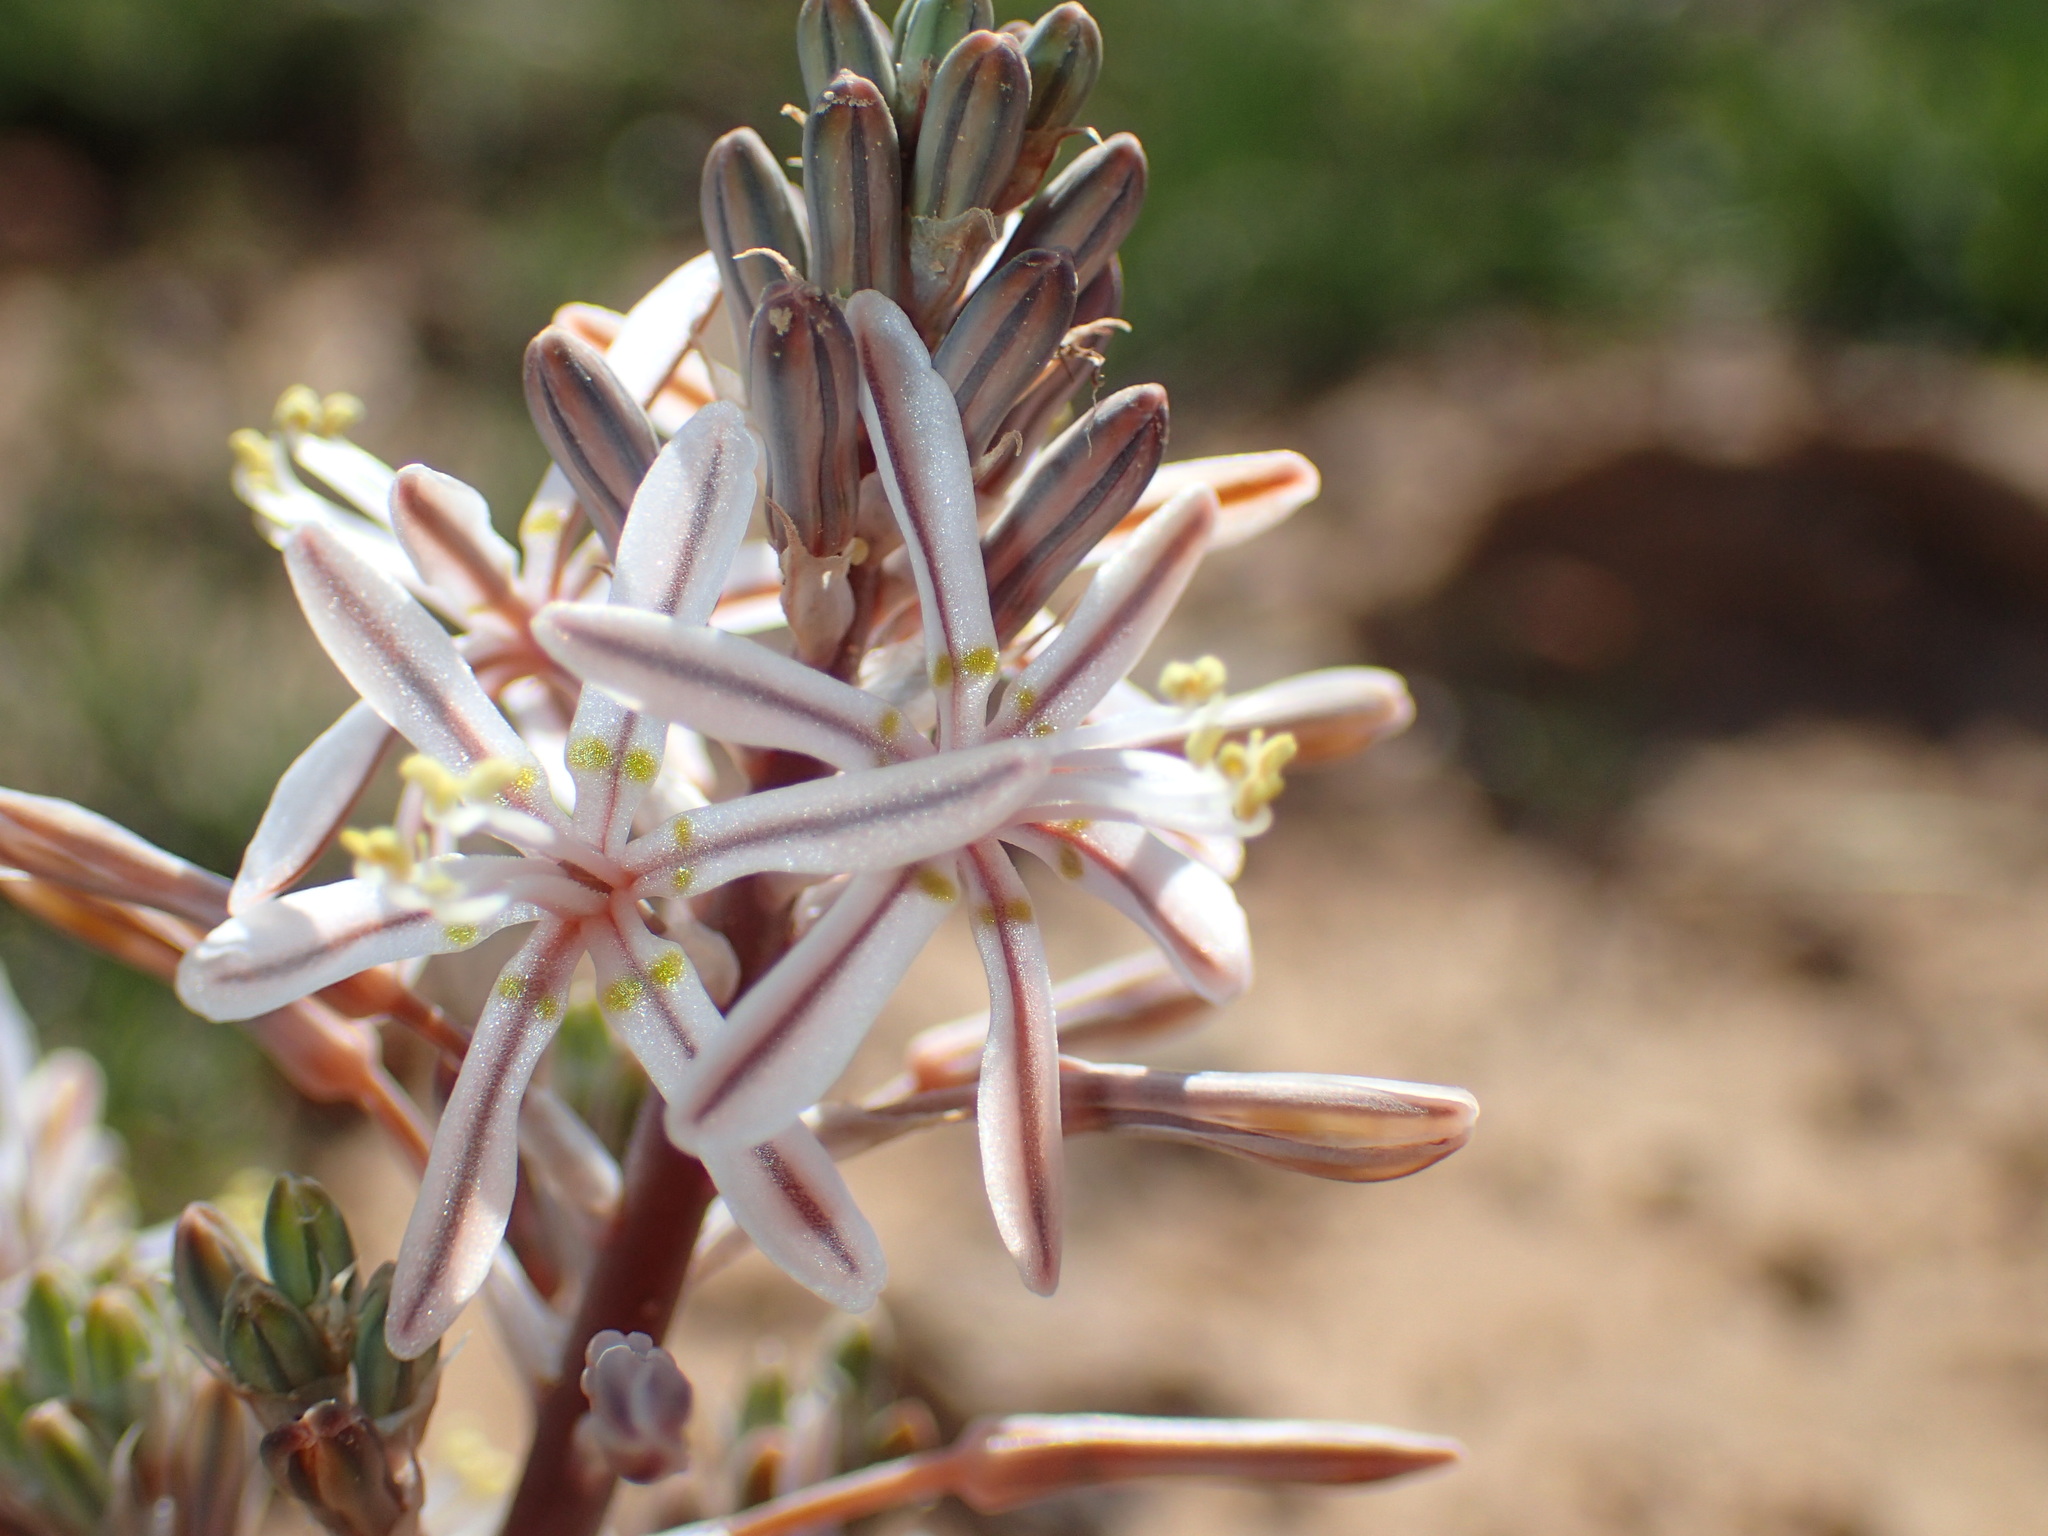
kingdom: Plantae
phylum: Tracheophyta
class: Liliopsida
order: Asparagales
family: Asphodelaceae
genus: Trachyandra
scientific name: Trachyandra sanguinorhiza
